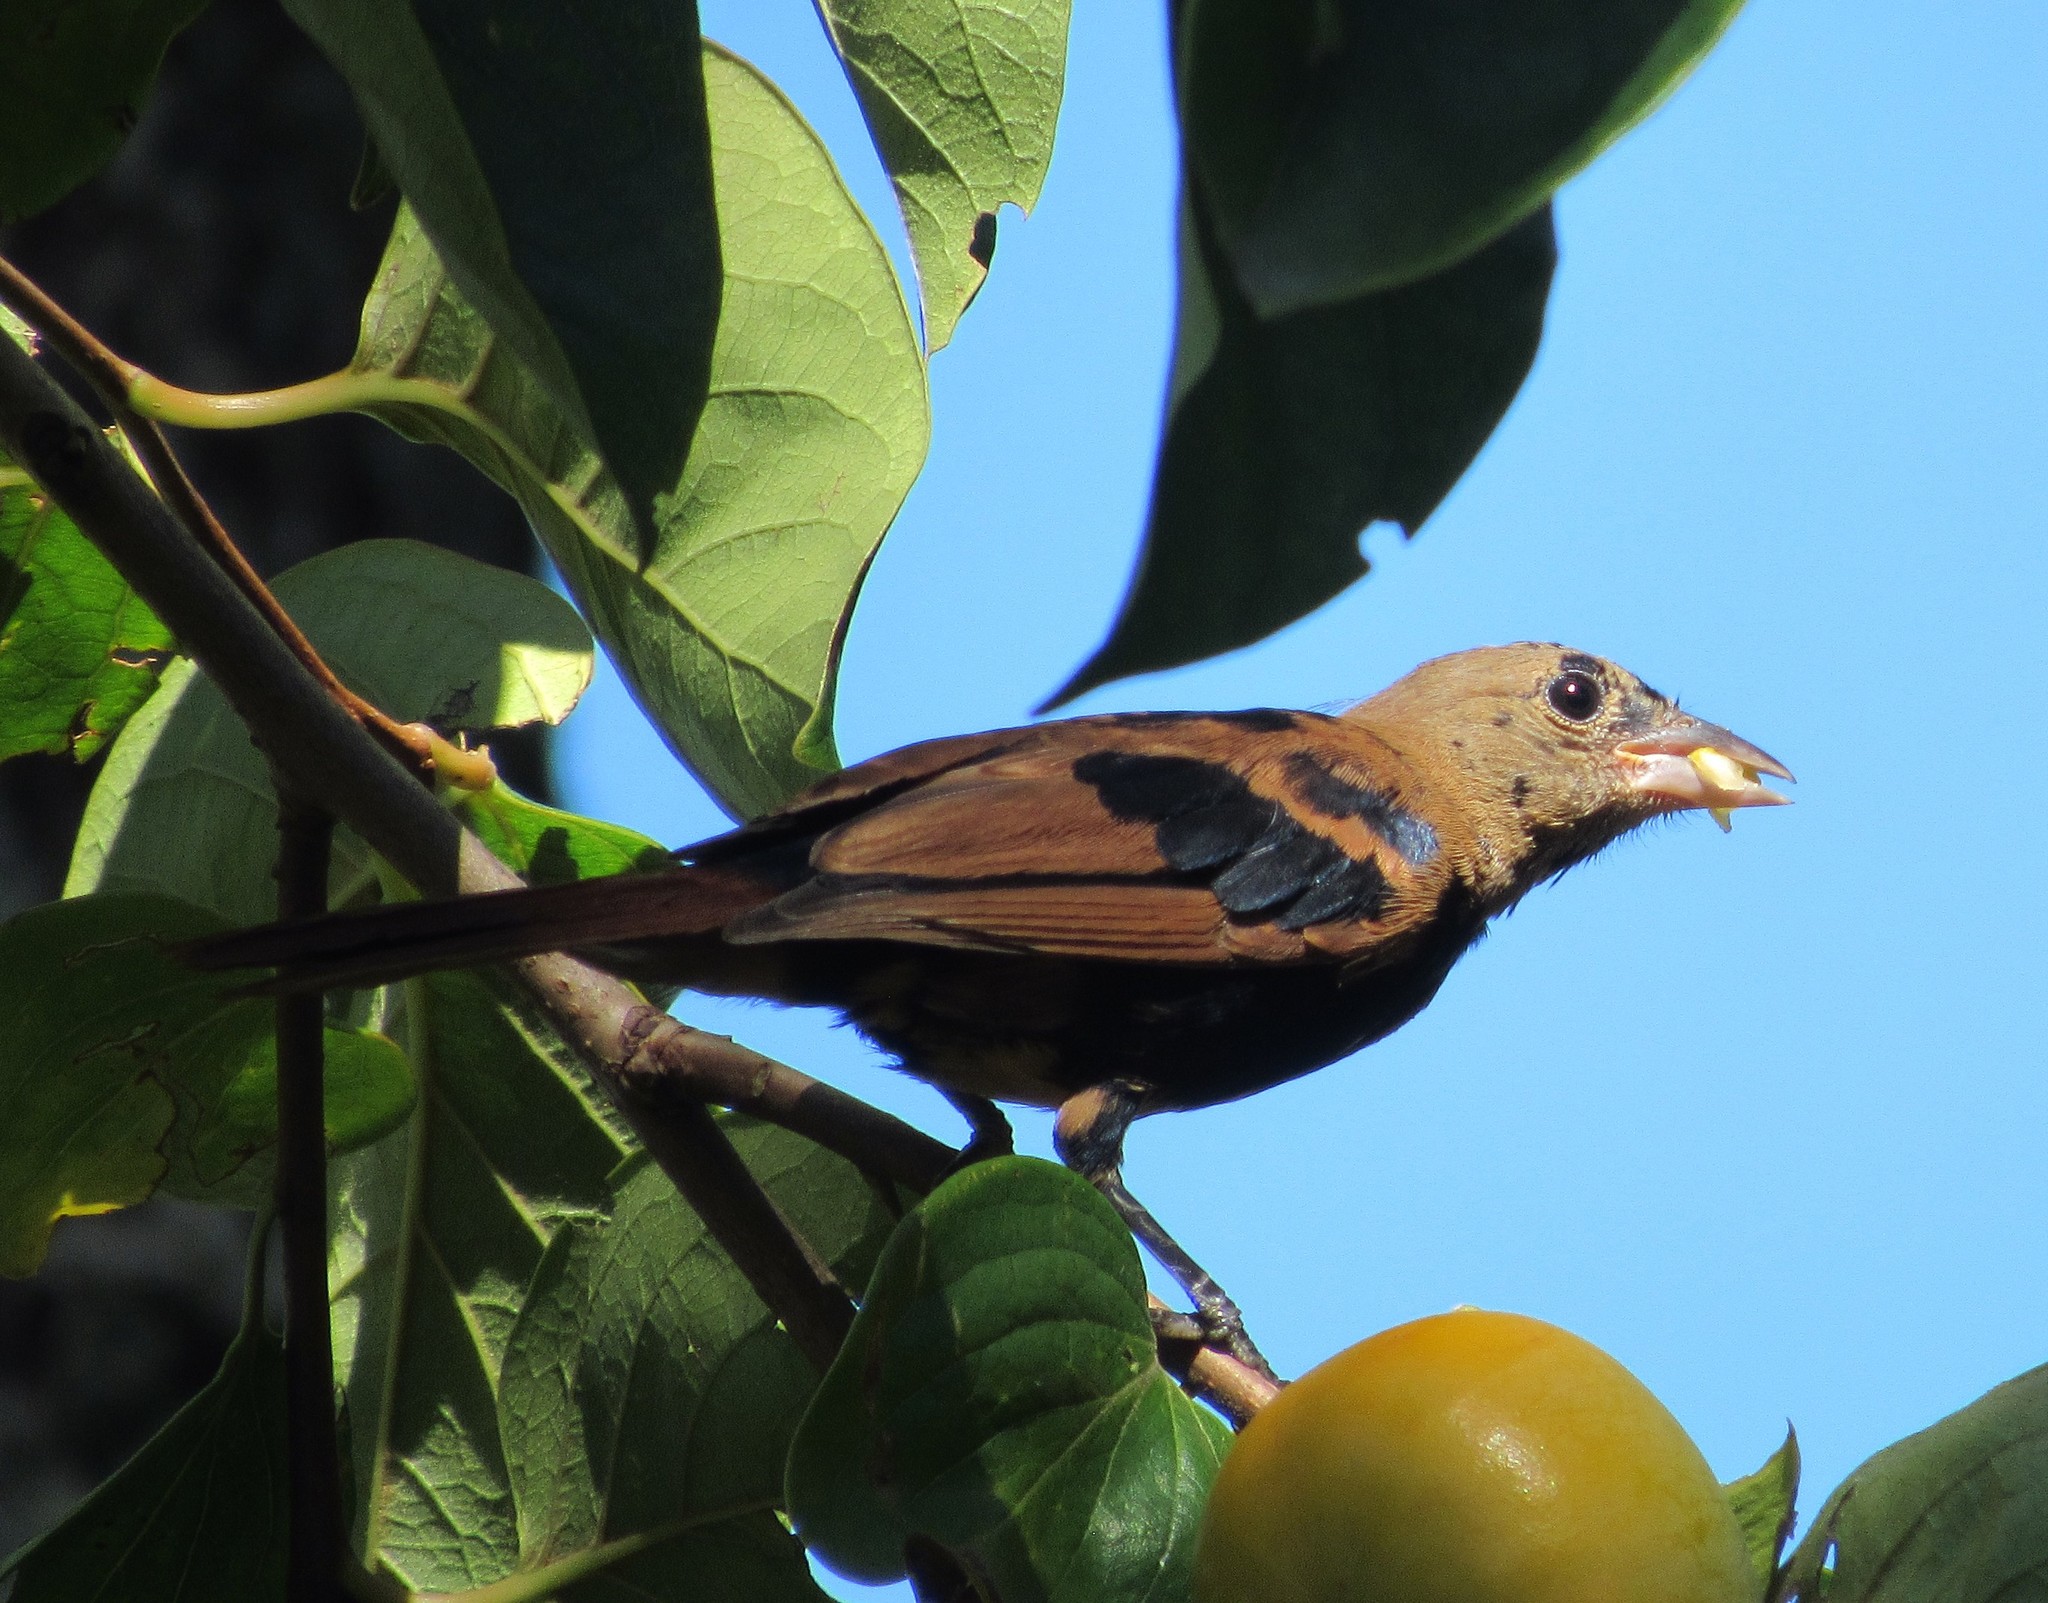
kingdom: Animalia
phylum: Chordata
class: Aves
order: Passeriformes
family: Thraupidae
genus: Tachyphonus
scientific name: Tachyphonus coronatus
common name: Ruby-crowned tanager
